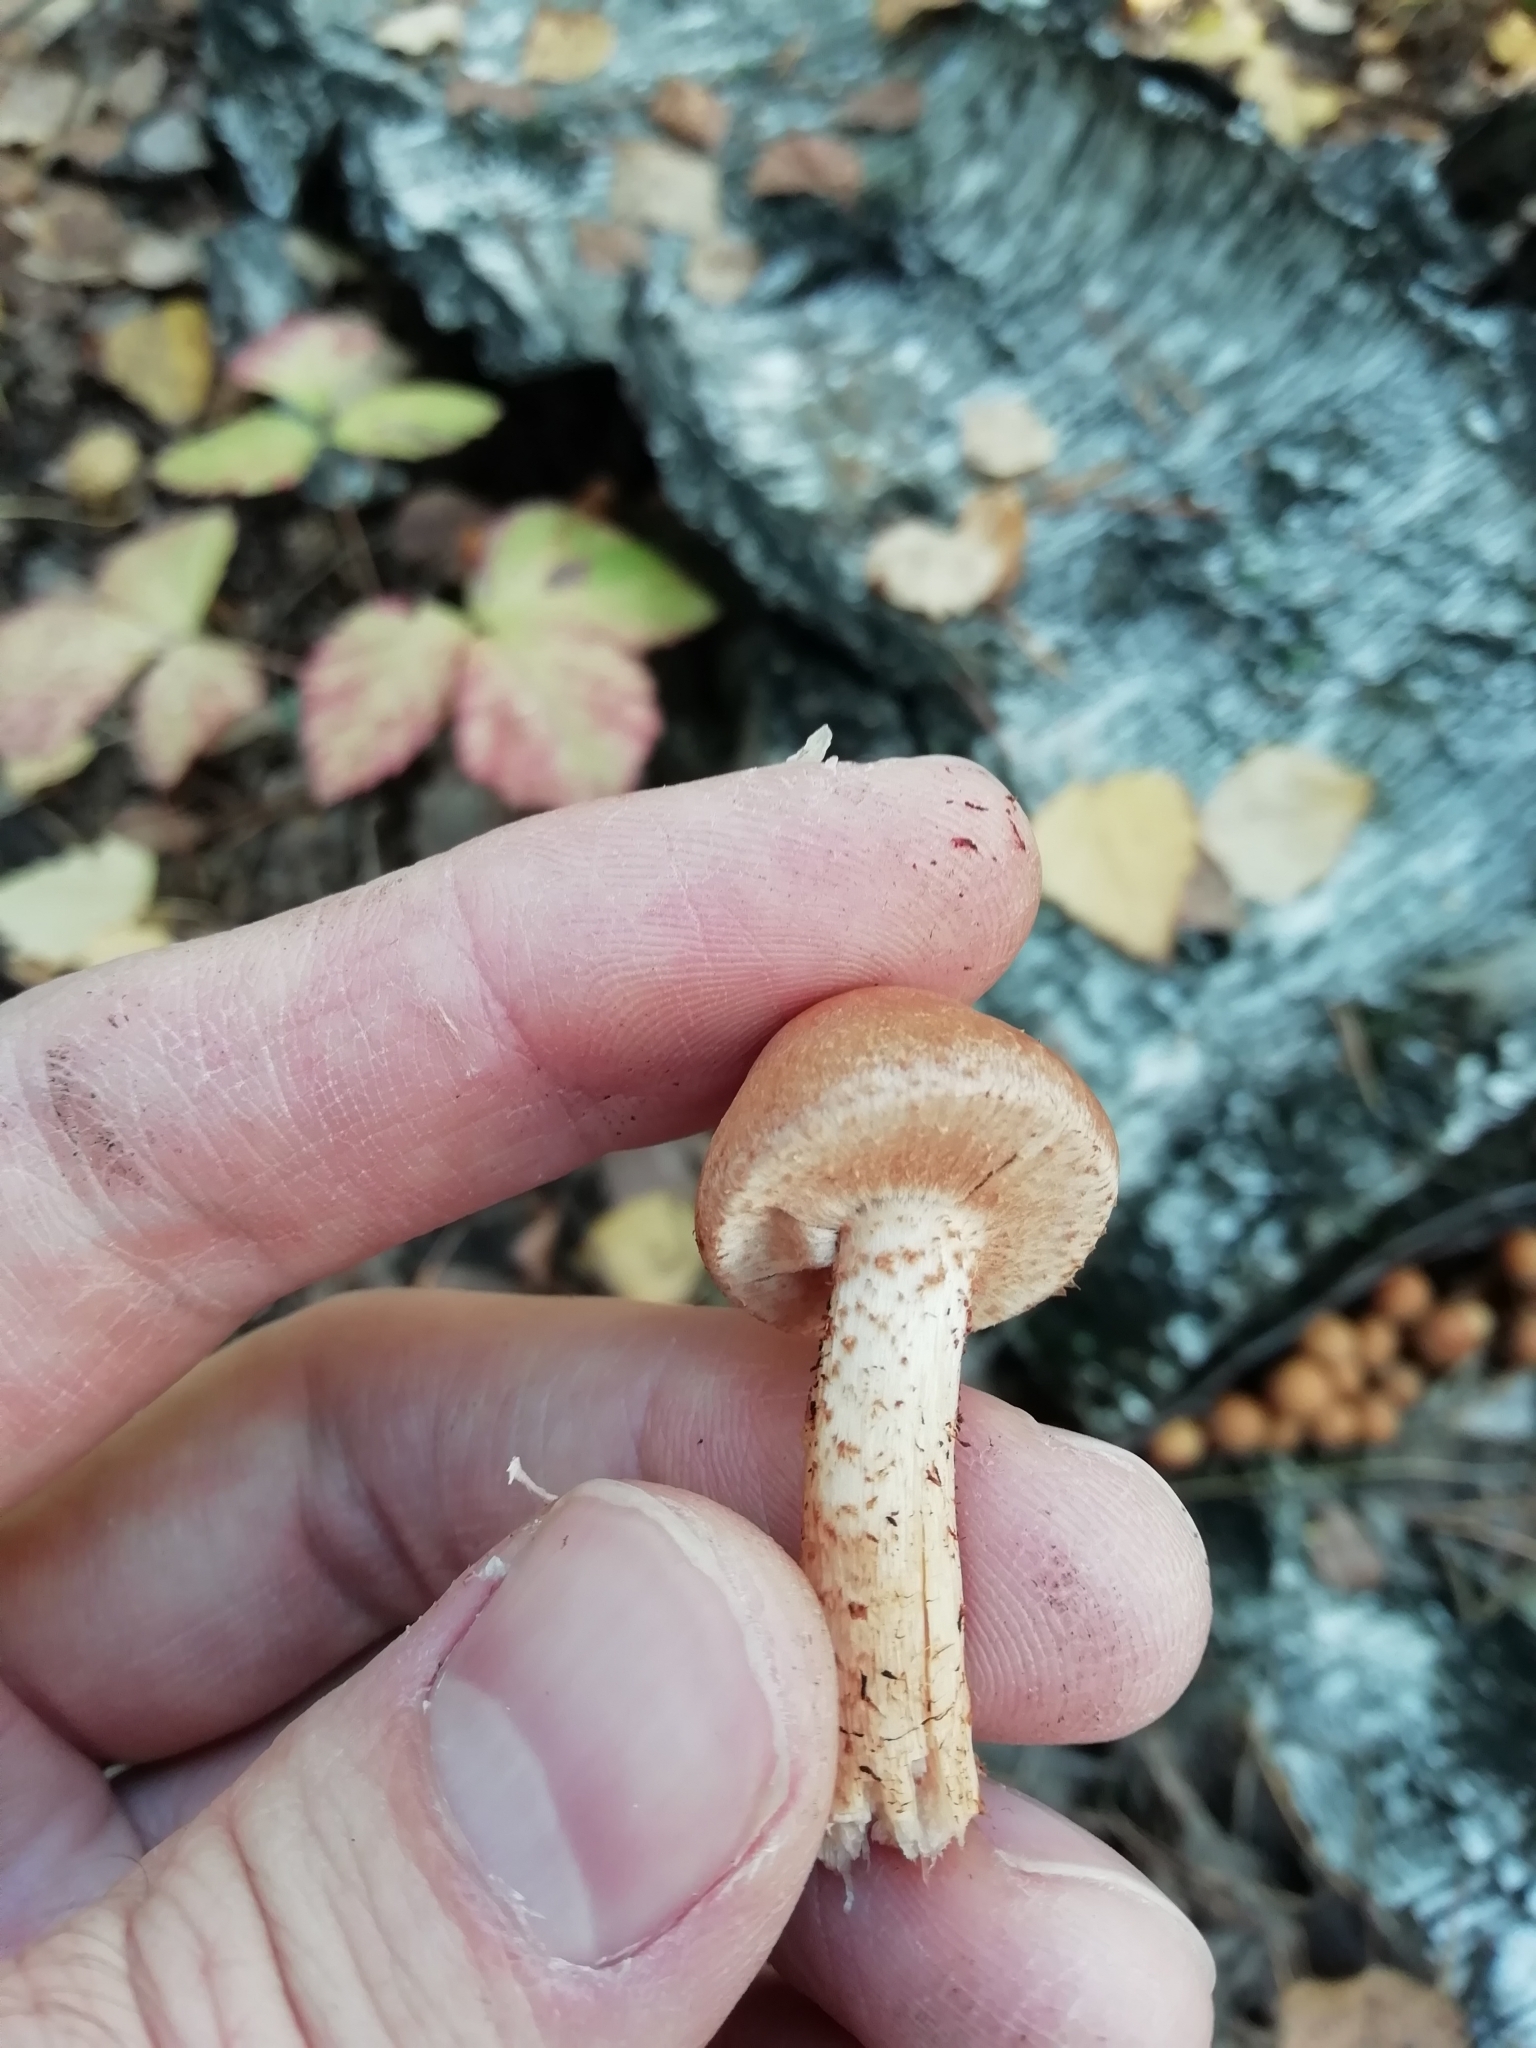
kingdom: Fungi
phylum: Basidiomycota
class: Agaricomycetes
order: Agaricales
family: Strophariaceae
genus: Kuehneromyces
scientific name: Kuehneromyces mutabilis
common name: Sheathed woodtuft
